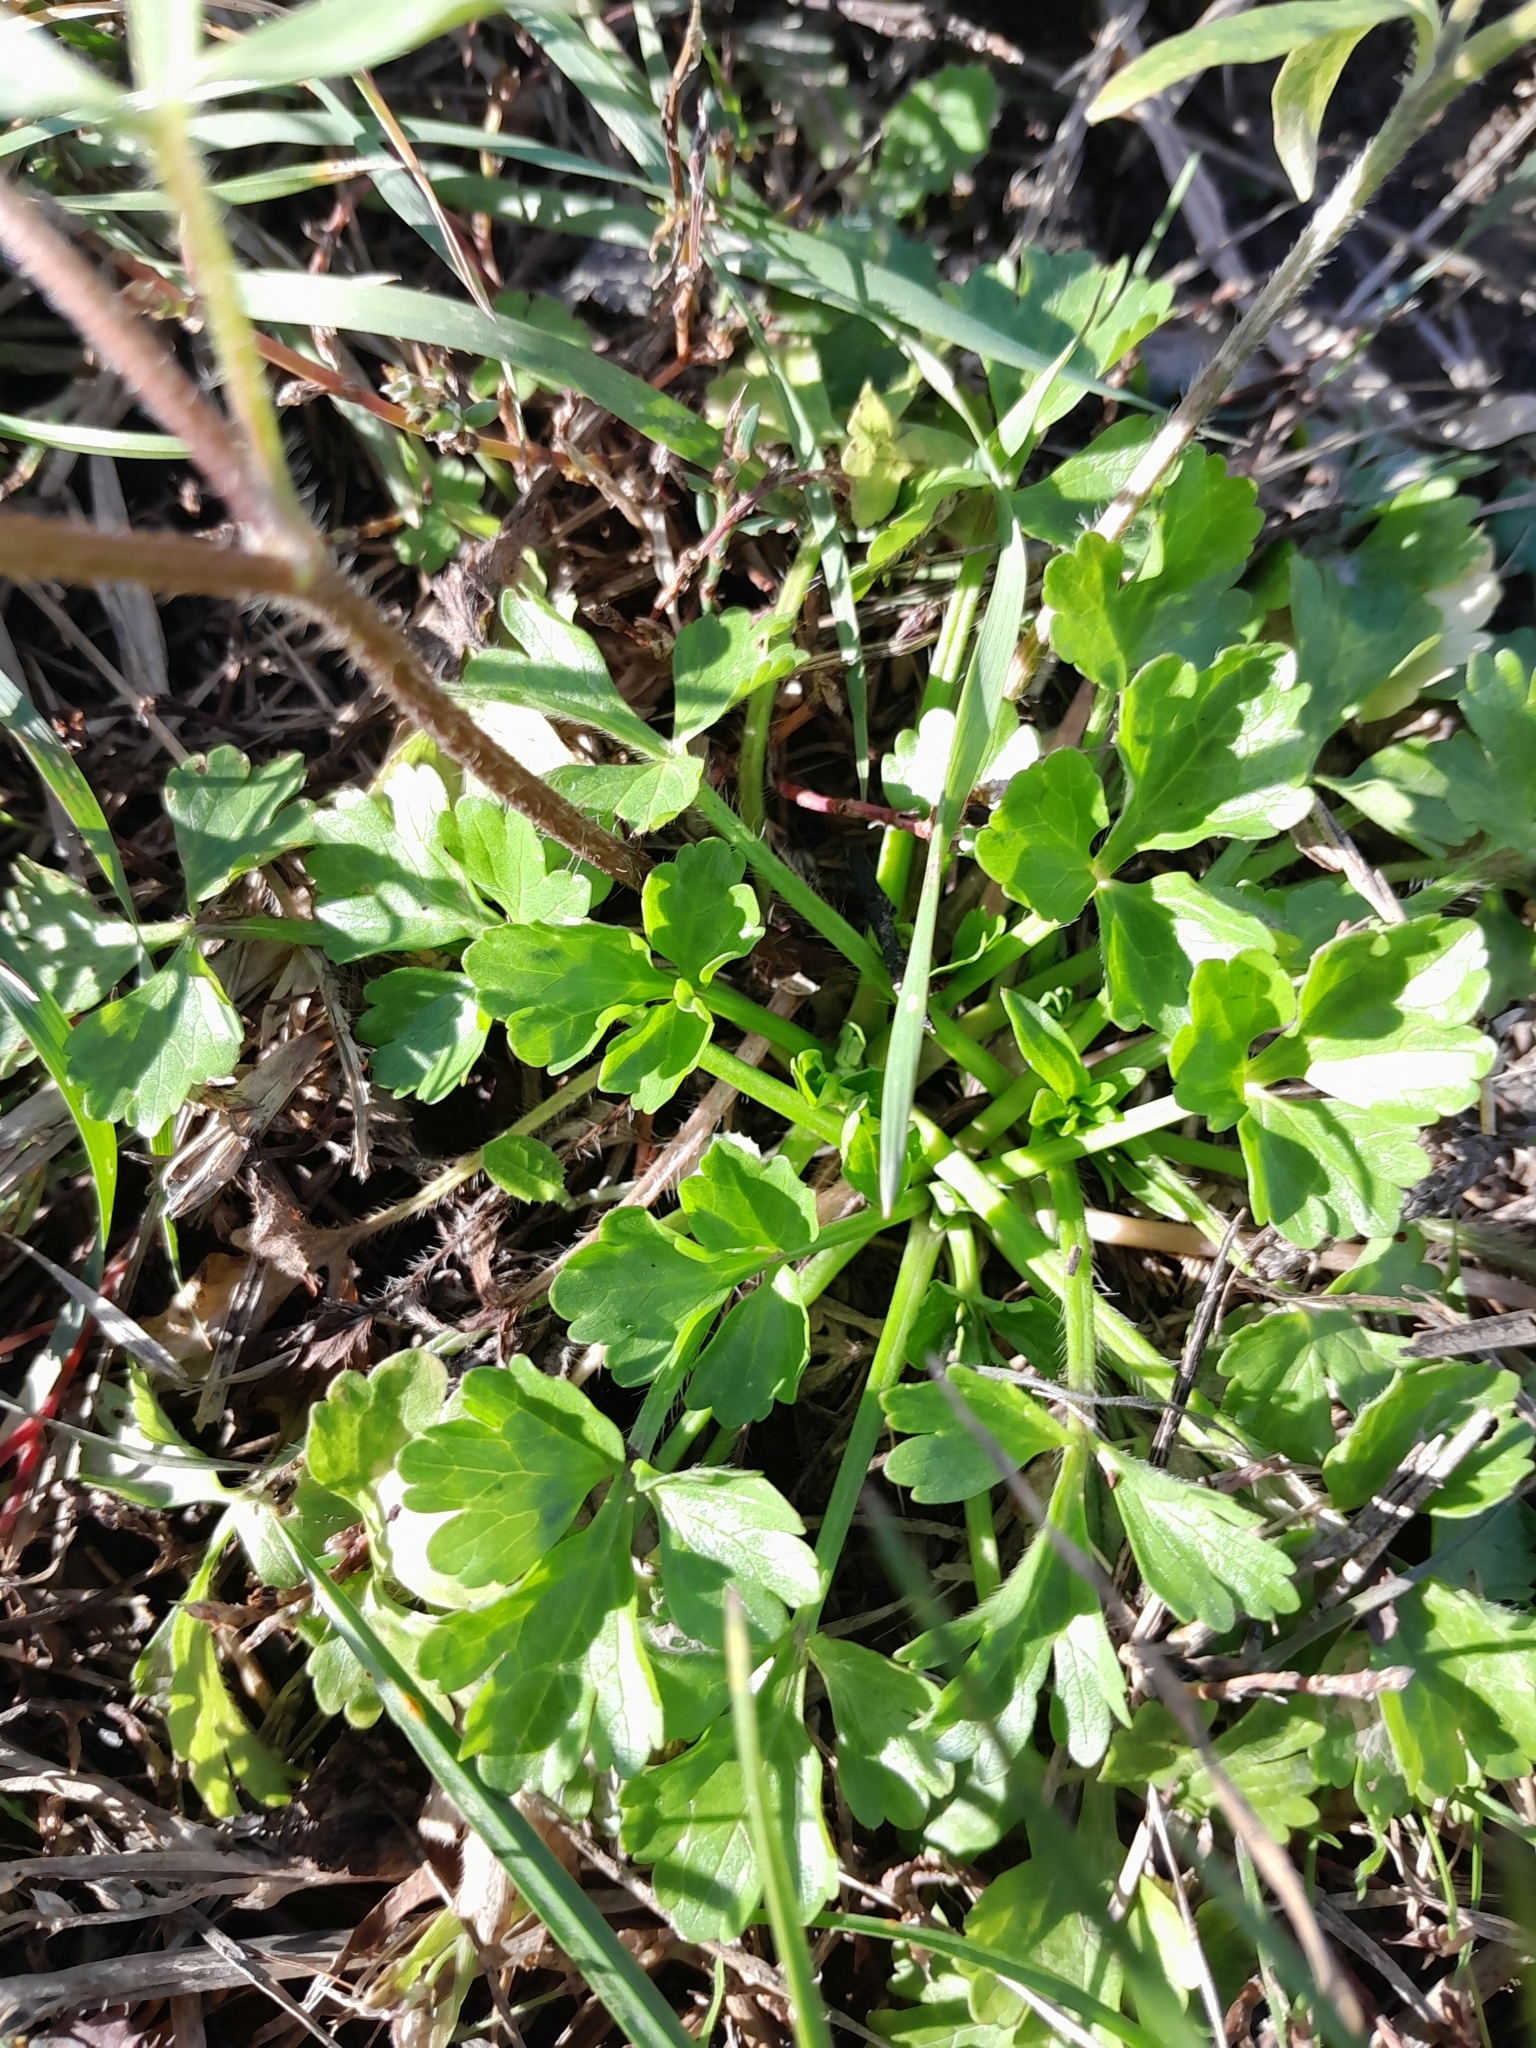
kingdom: Plantae
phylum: Tracheophyta
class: Magnoliopsida
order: Ranunculales
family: Ranunculaceae
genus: Ranunculus
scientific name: Ranunculus sardous
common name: Hairy buttercup
